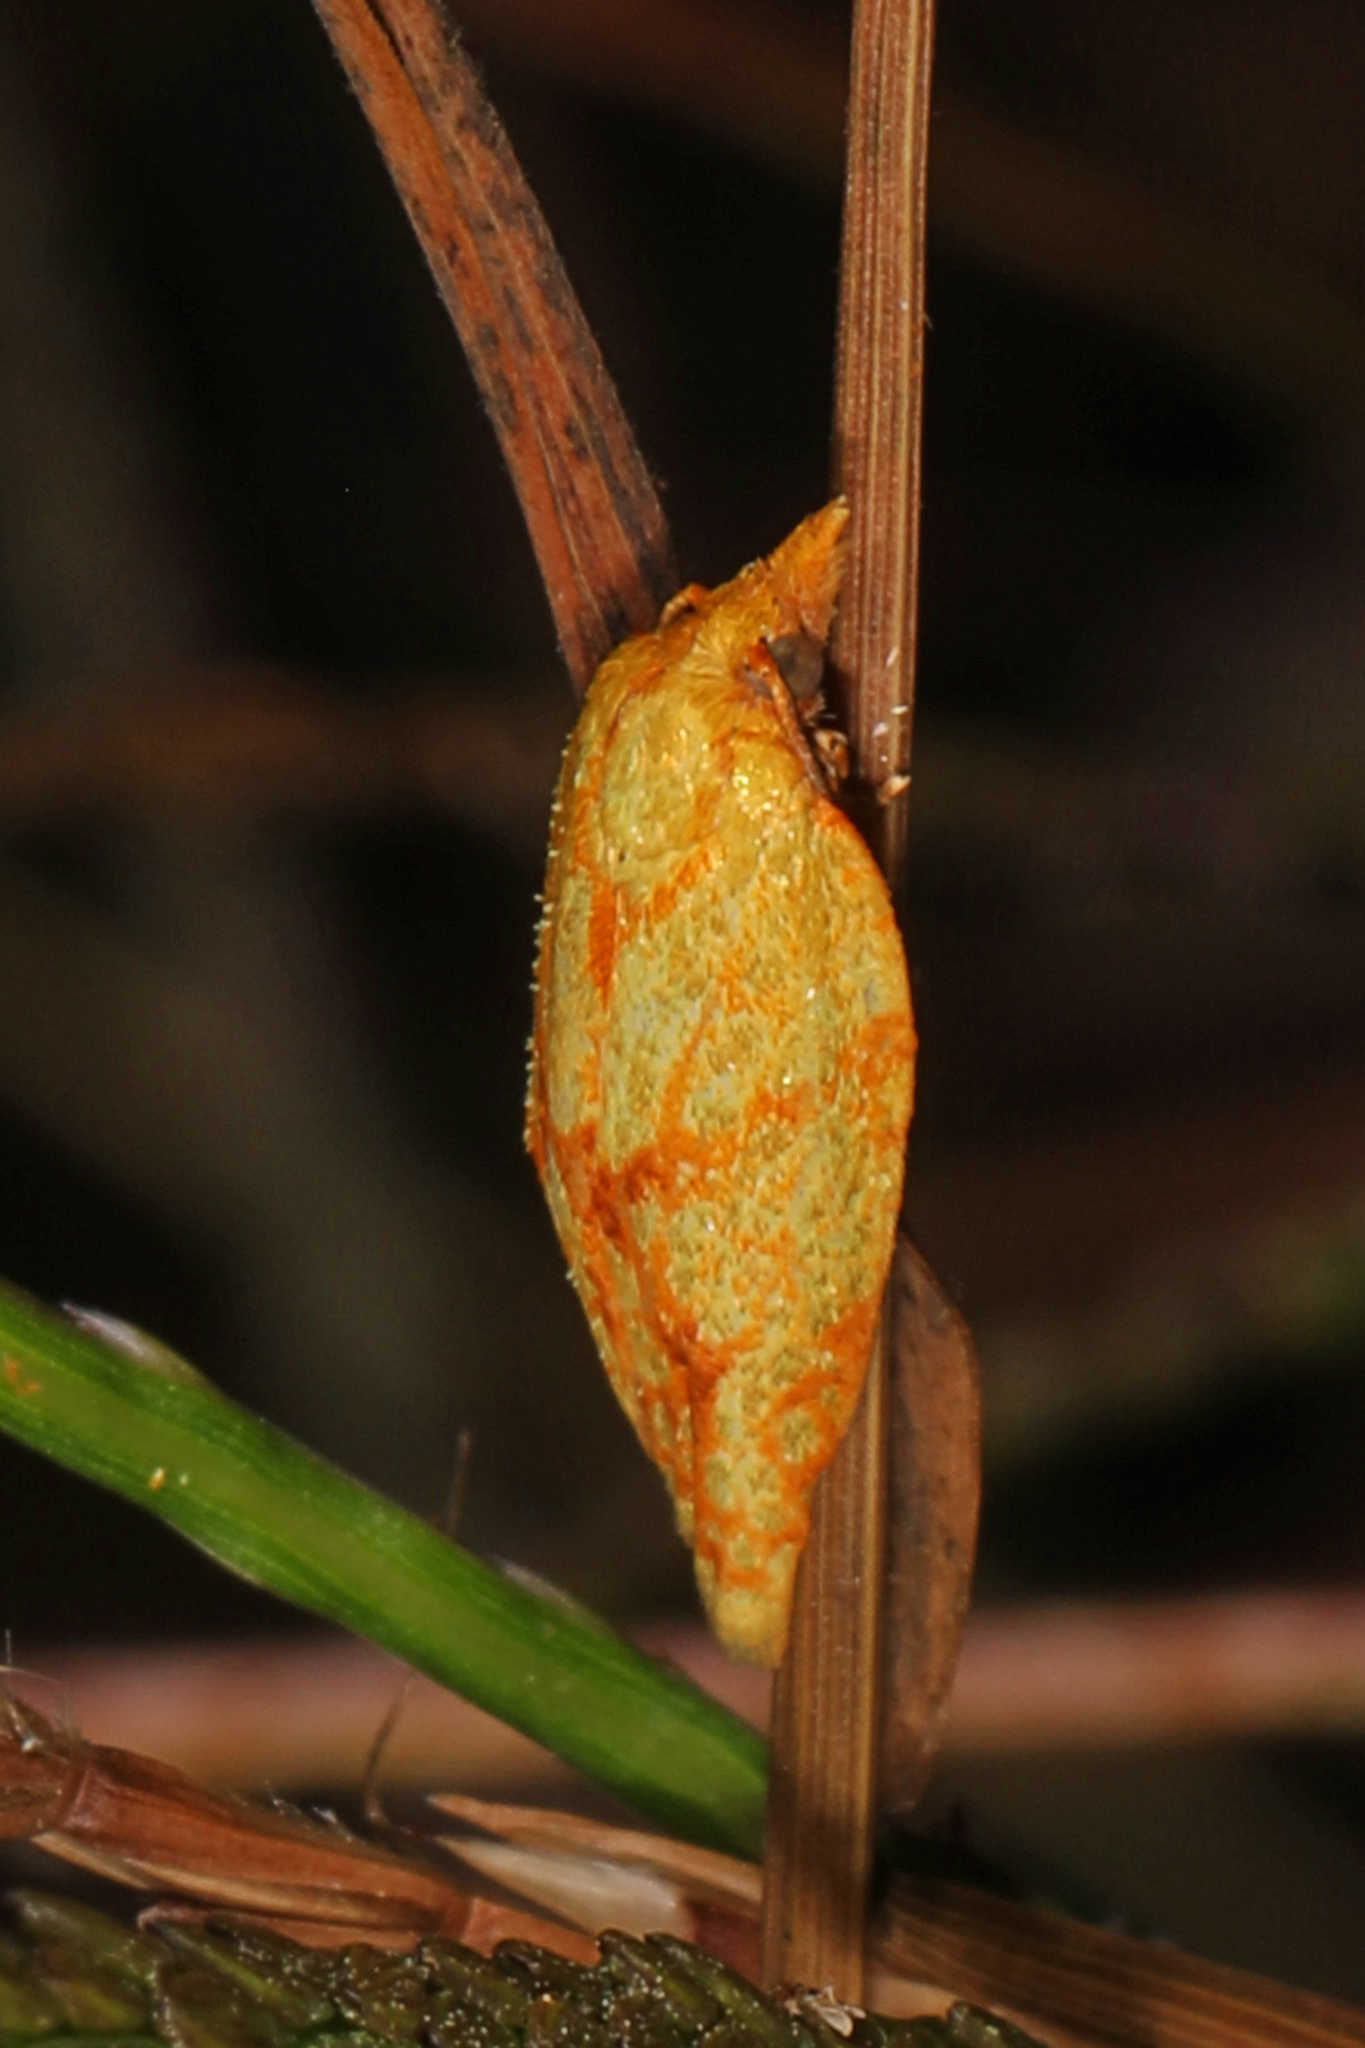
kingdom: Animalia
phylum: Arthropoda
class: Insecta
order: Lepidoptera
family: Tortricidae
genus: Sparganothis
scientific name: Sparganothis sulfureana
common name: Sparganothis fruitworm moth
